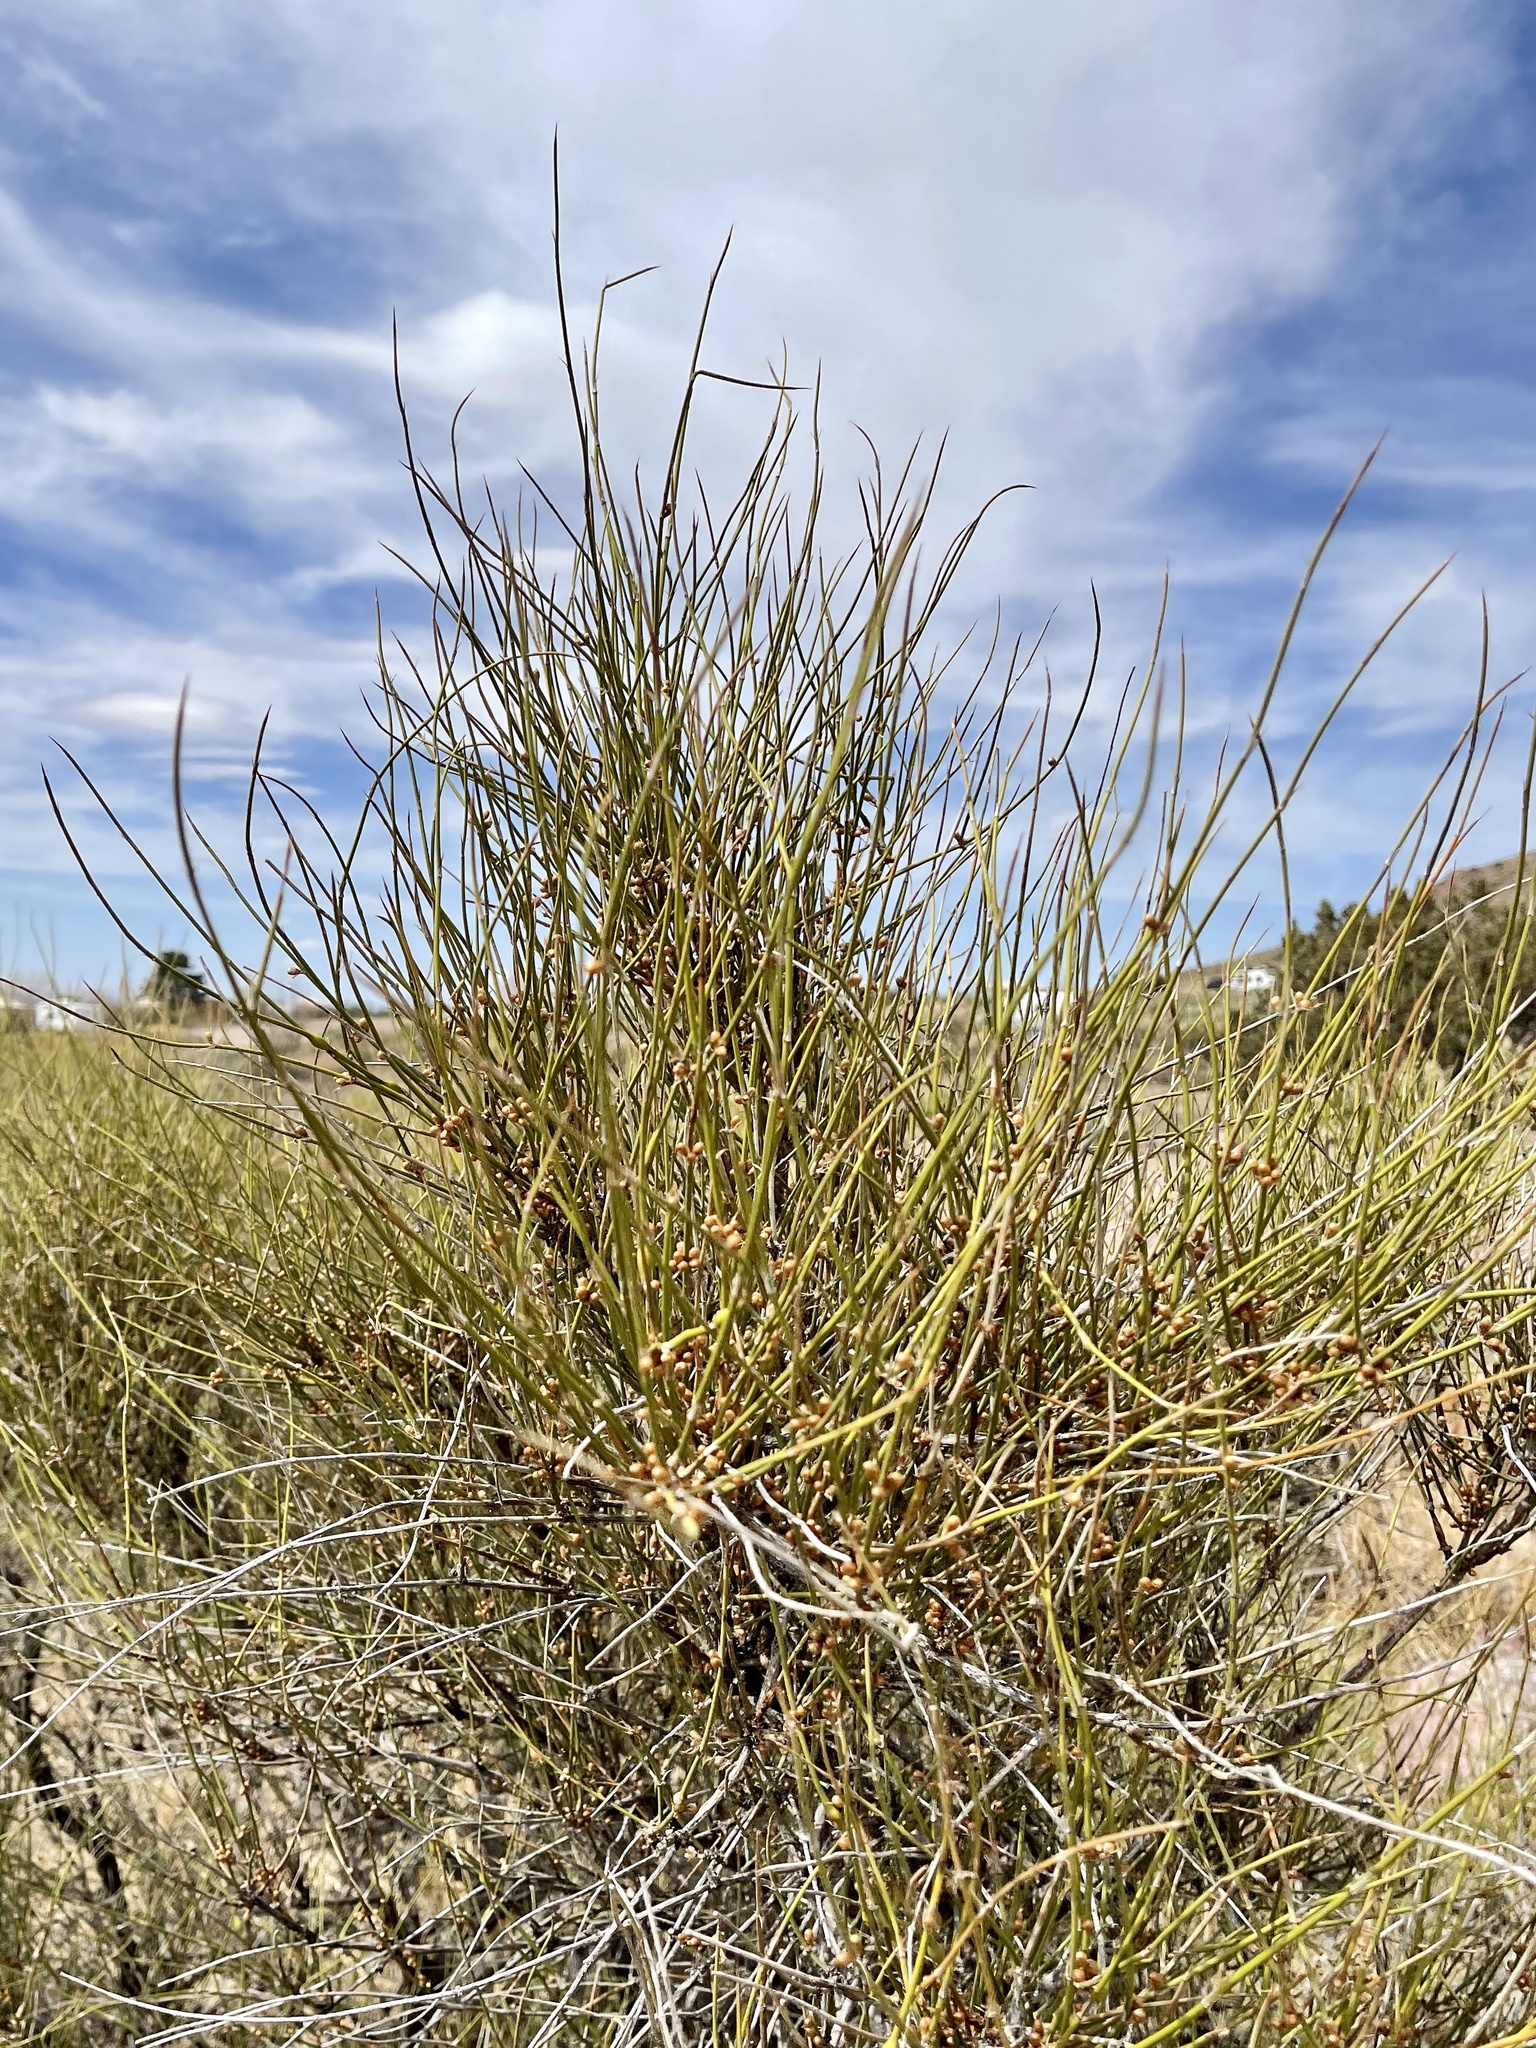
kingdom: Plantae
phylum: Tracheophyta
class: Gnetopsida
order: Ephedrales
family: Ephedraceae
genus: Ephedra
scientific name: Ephedra trifurca
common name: Mexican-tea
